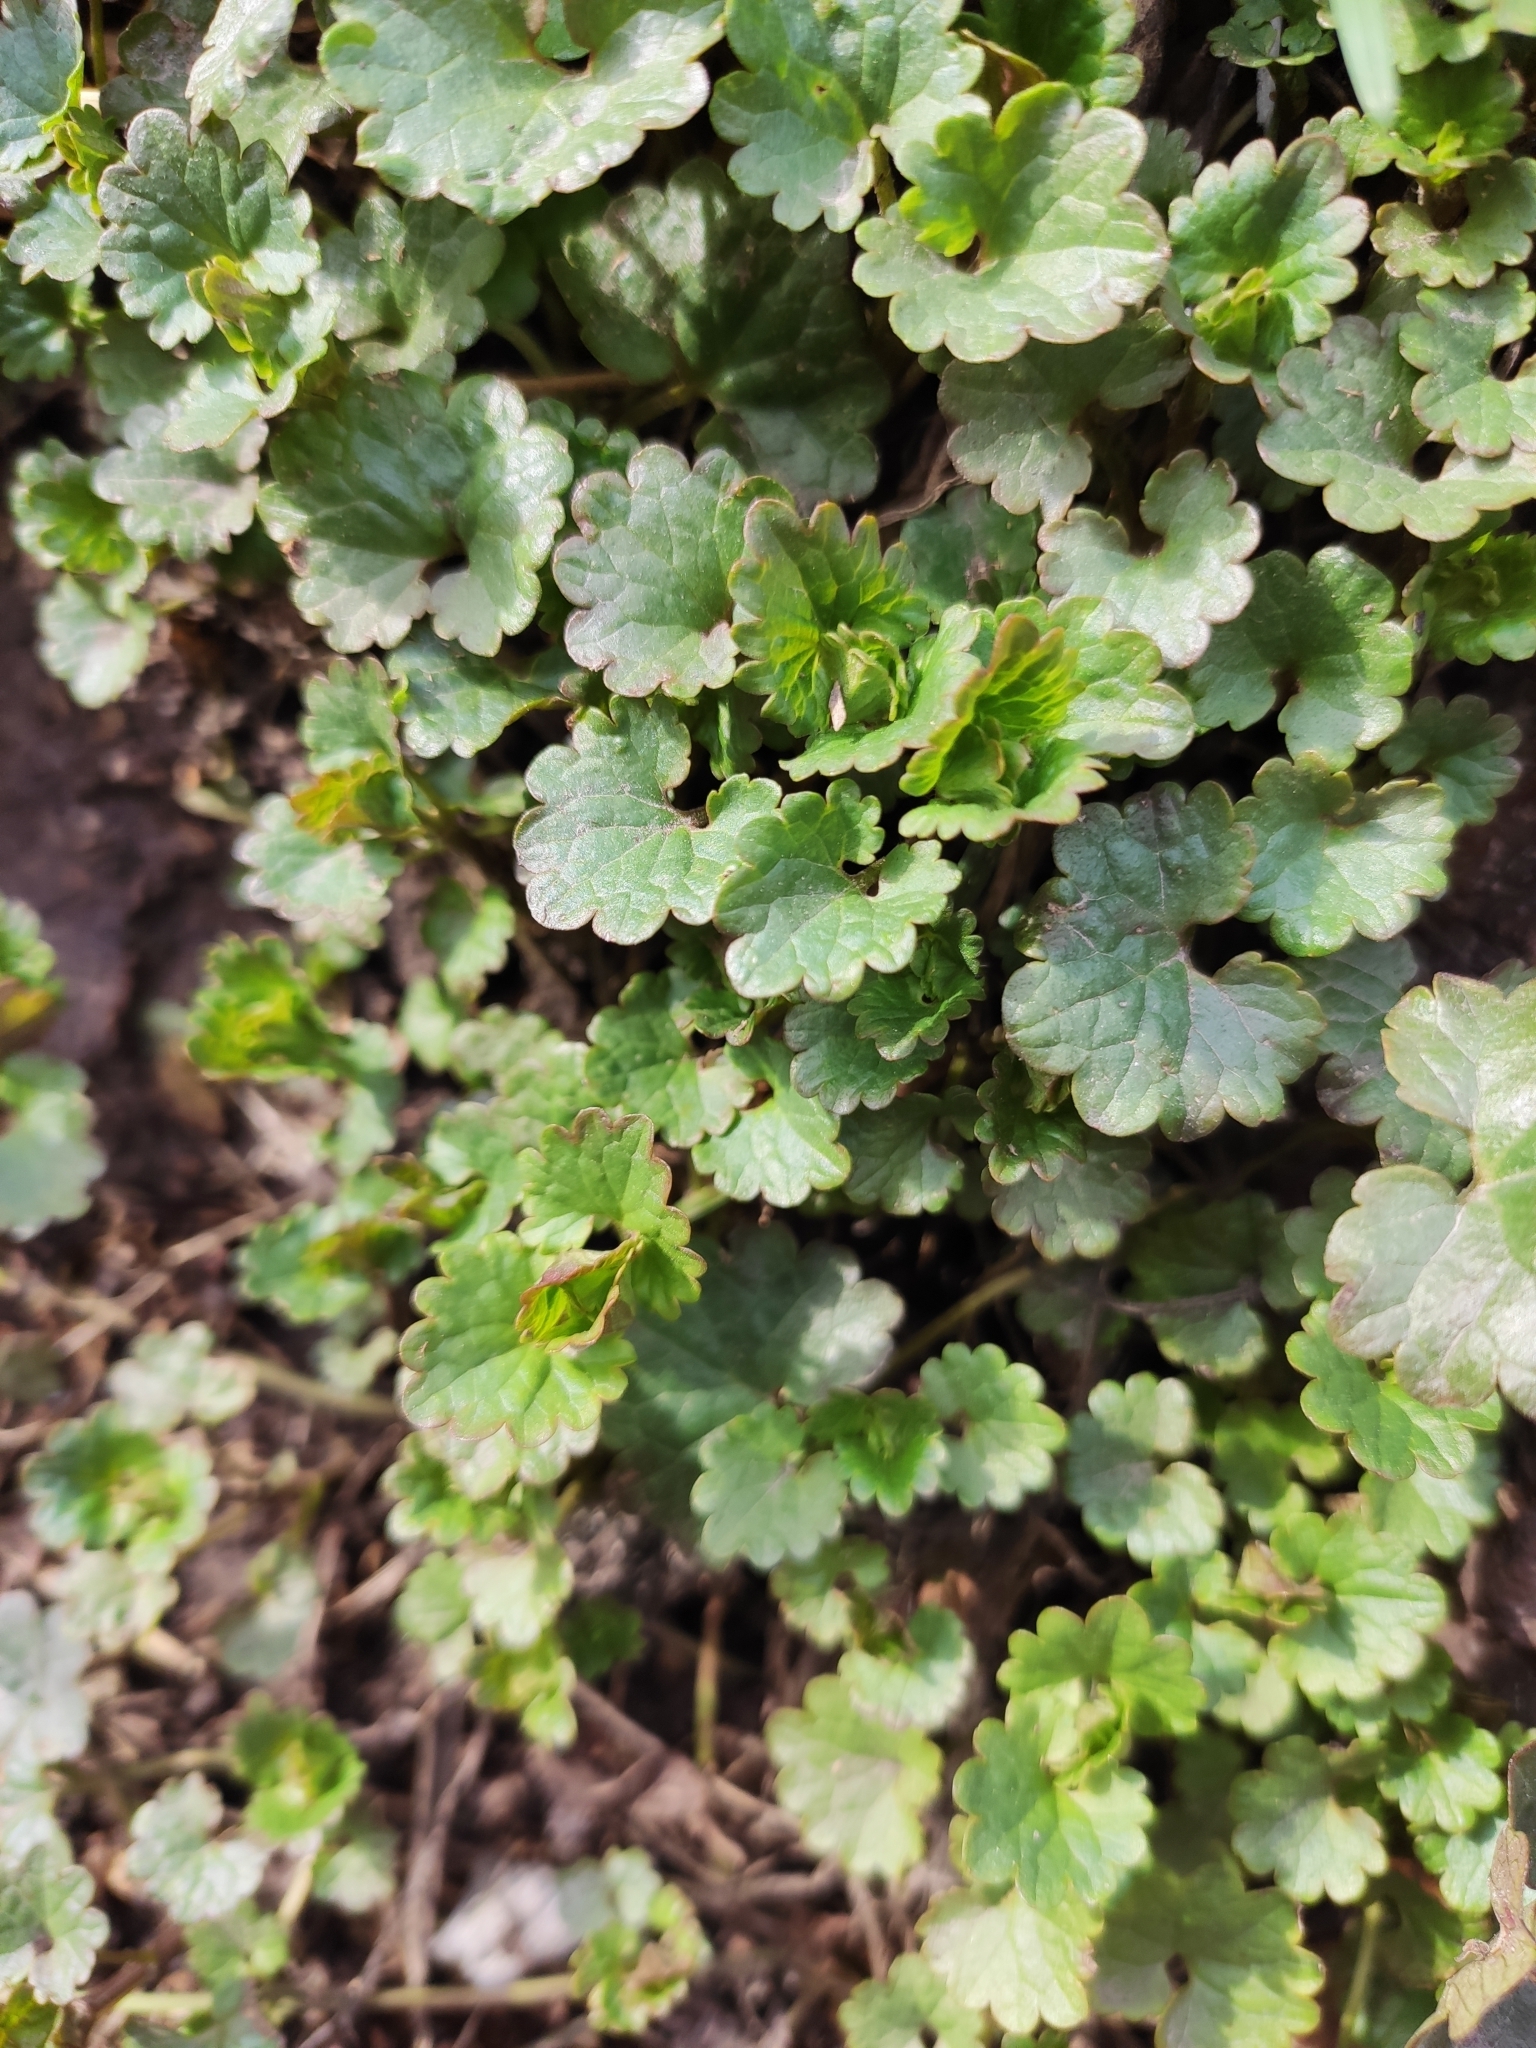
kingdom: Plantae
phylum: Tracheophyta
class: Magnoliopsida
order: Lamiales
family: Lamiaceae
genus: Glechoma
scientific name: Glechoma hederacea
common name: Ground ivy
